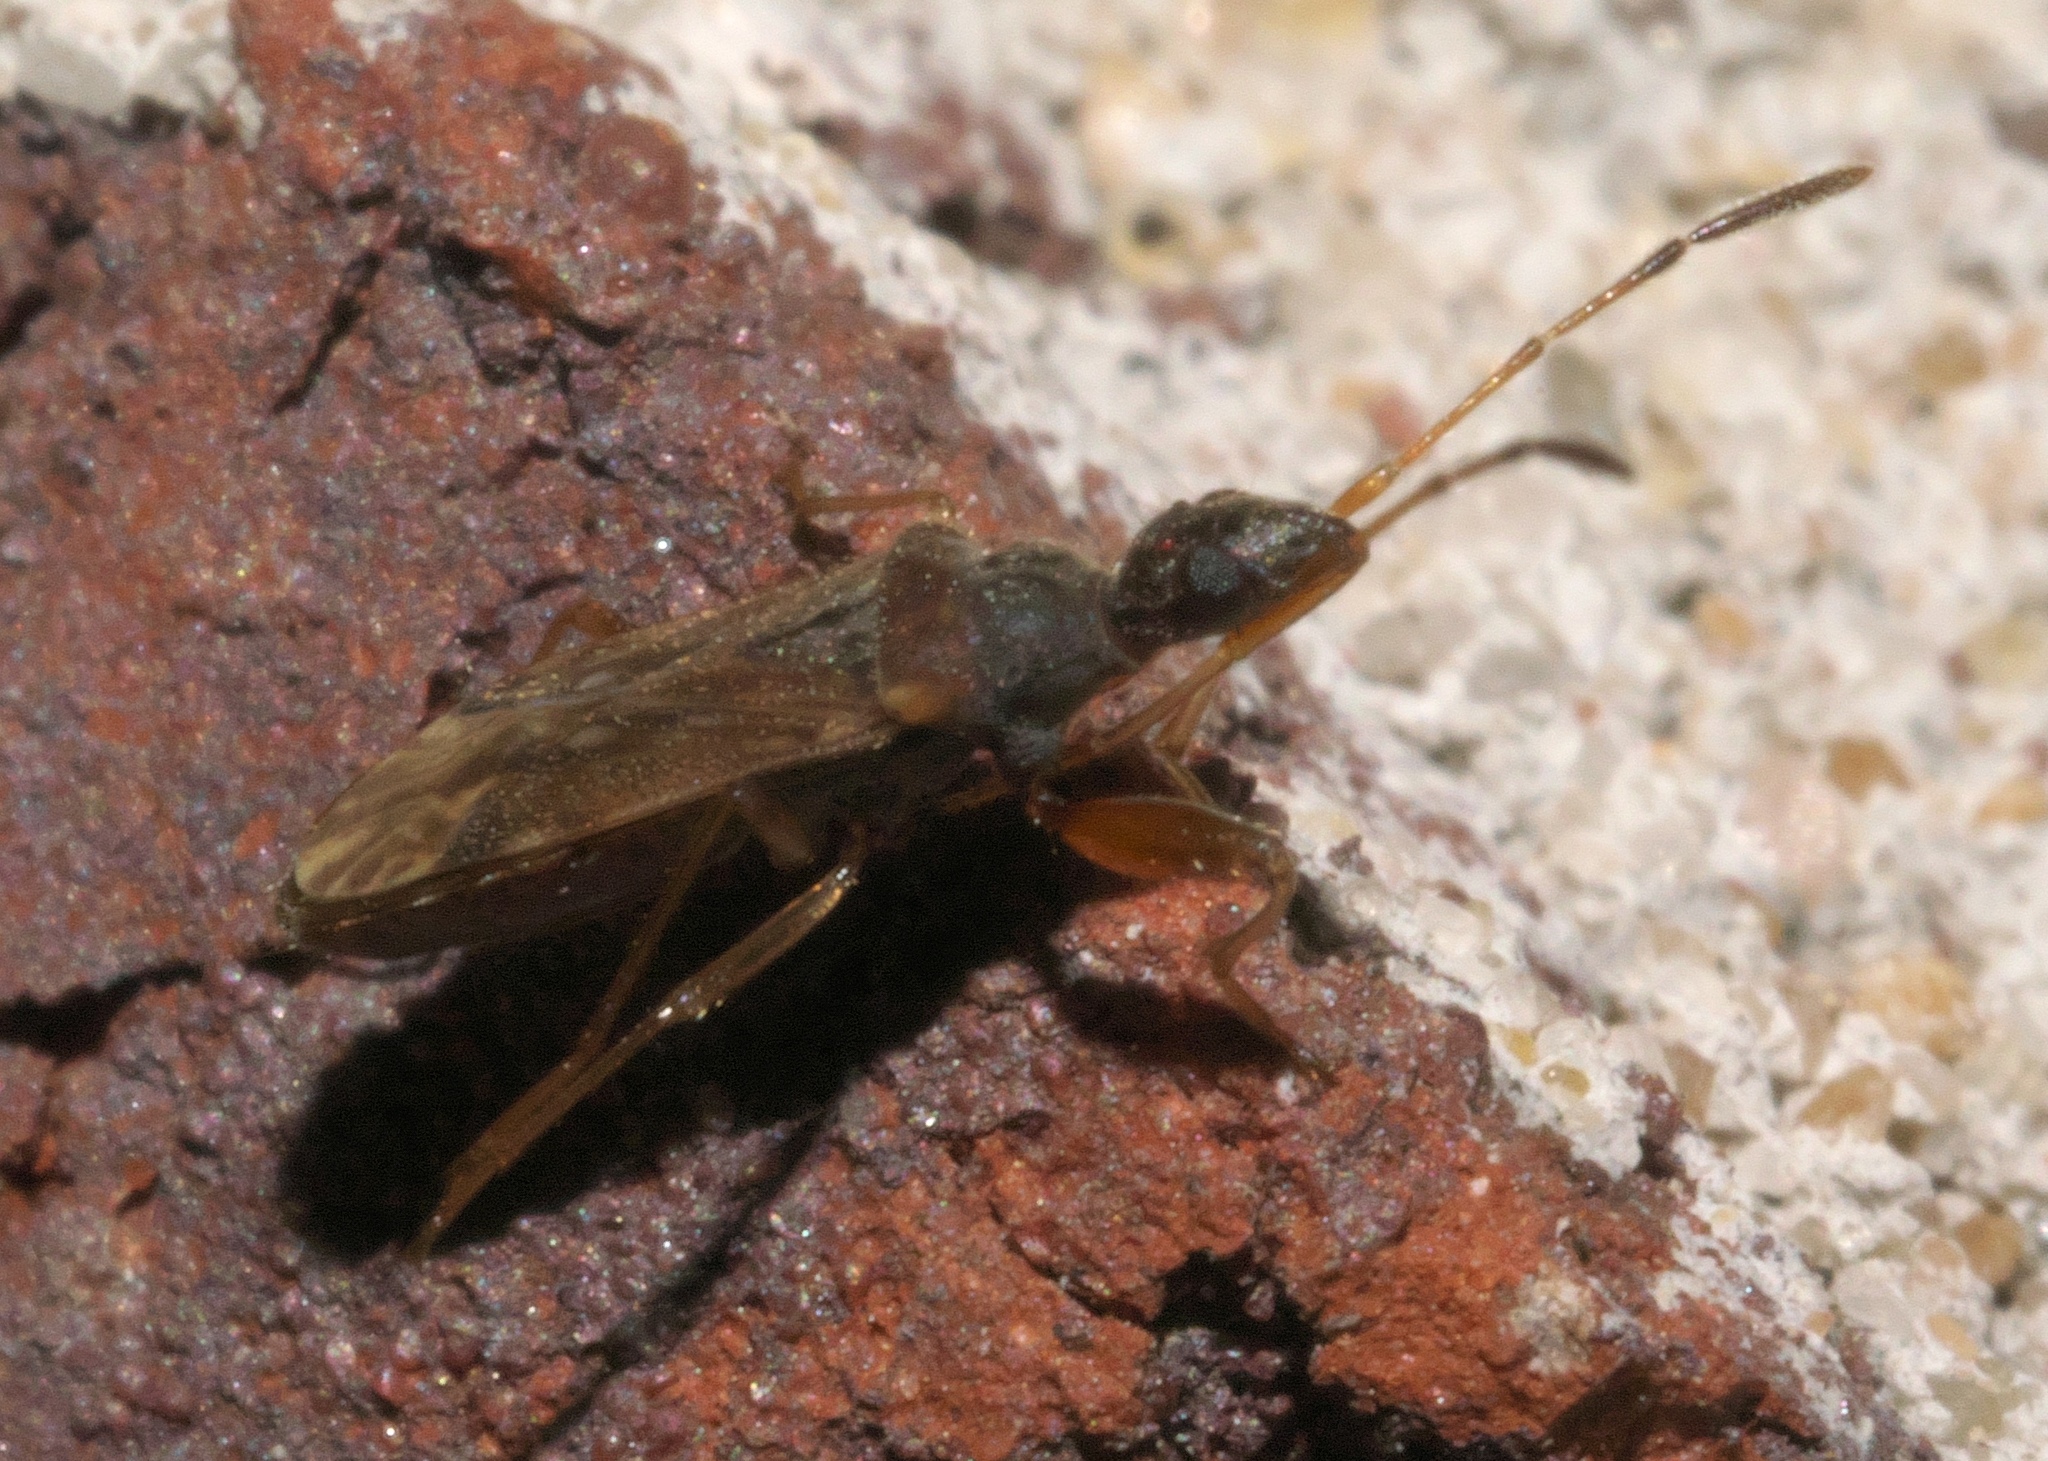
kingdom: Animalia
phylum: Arthropoda
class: Insecta
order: Hemiptera
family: Rhyparochromidae
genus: Heraeus
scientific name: Heraeus plebejus
